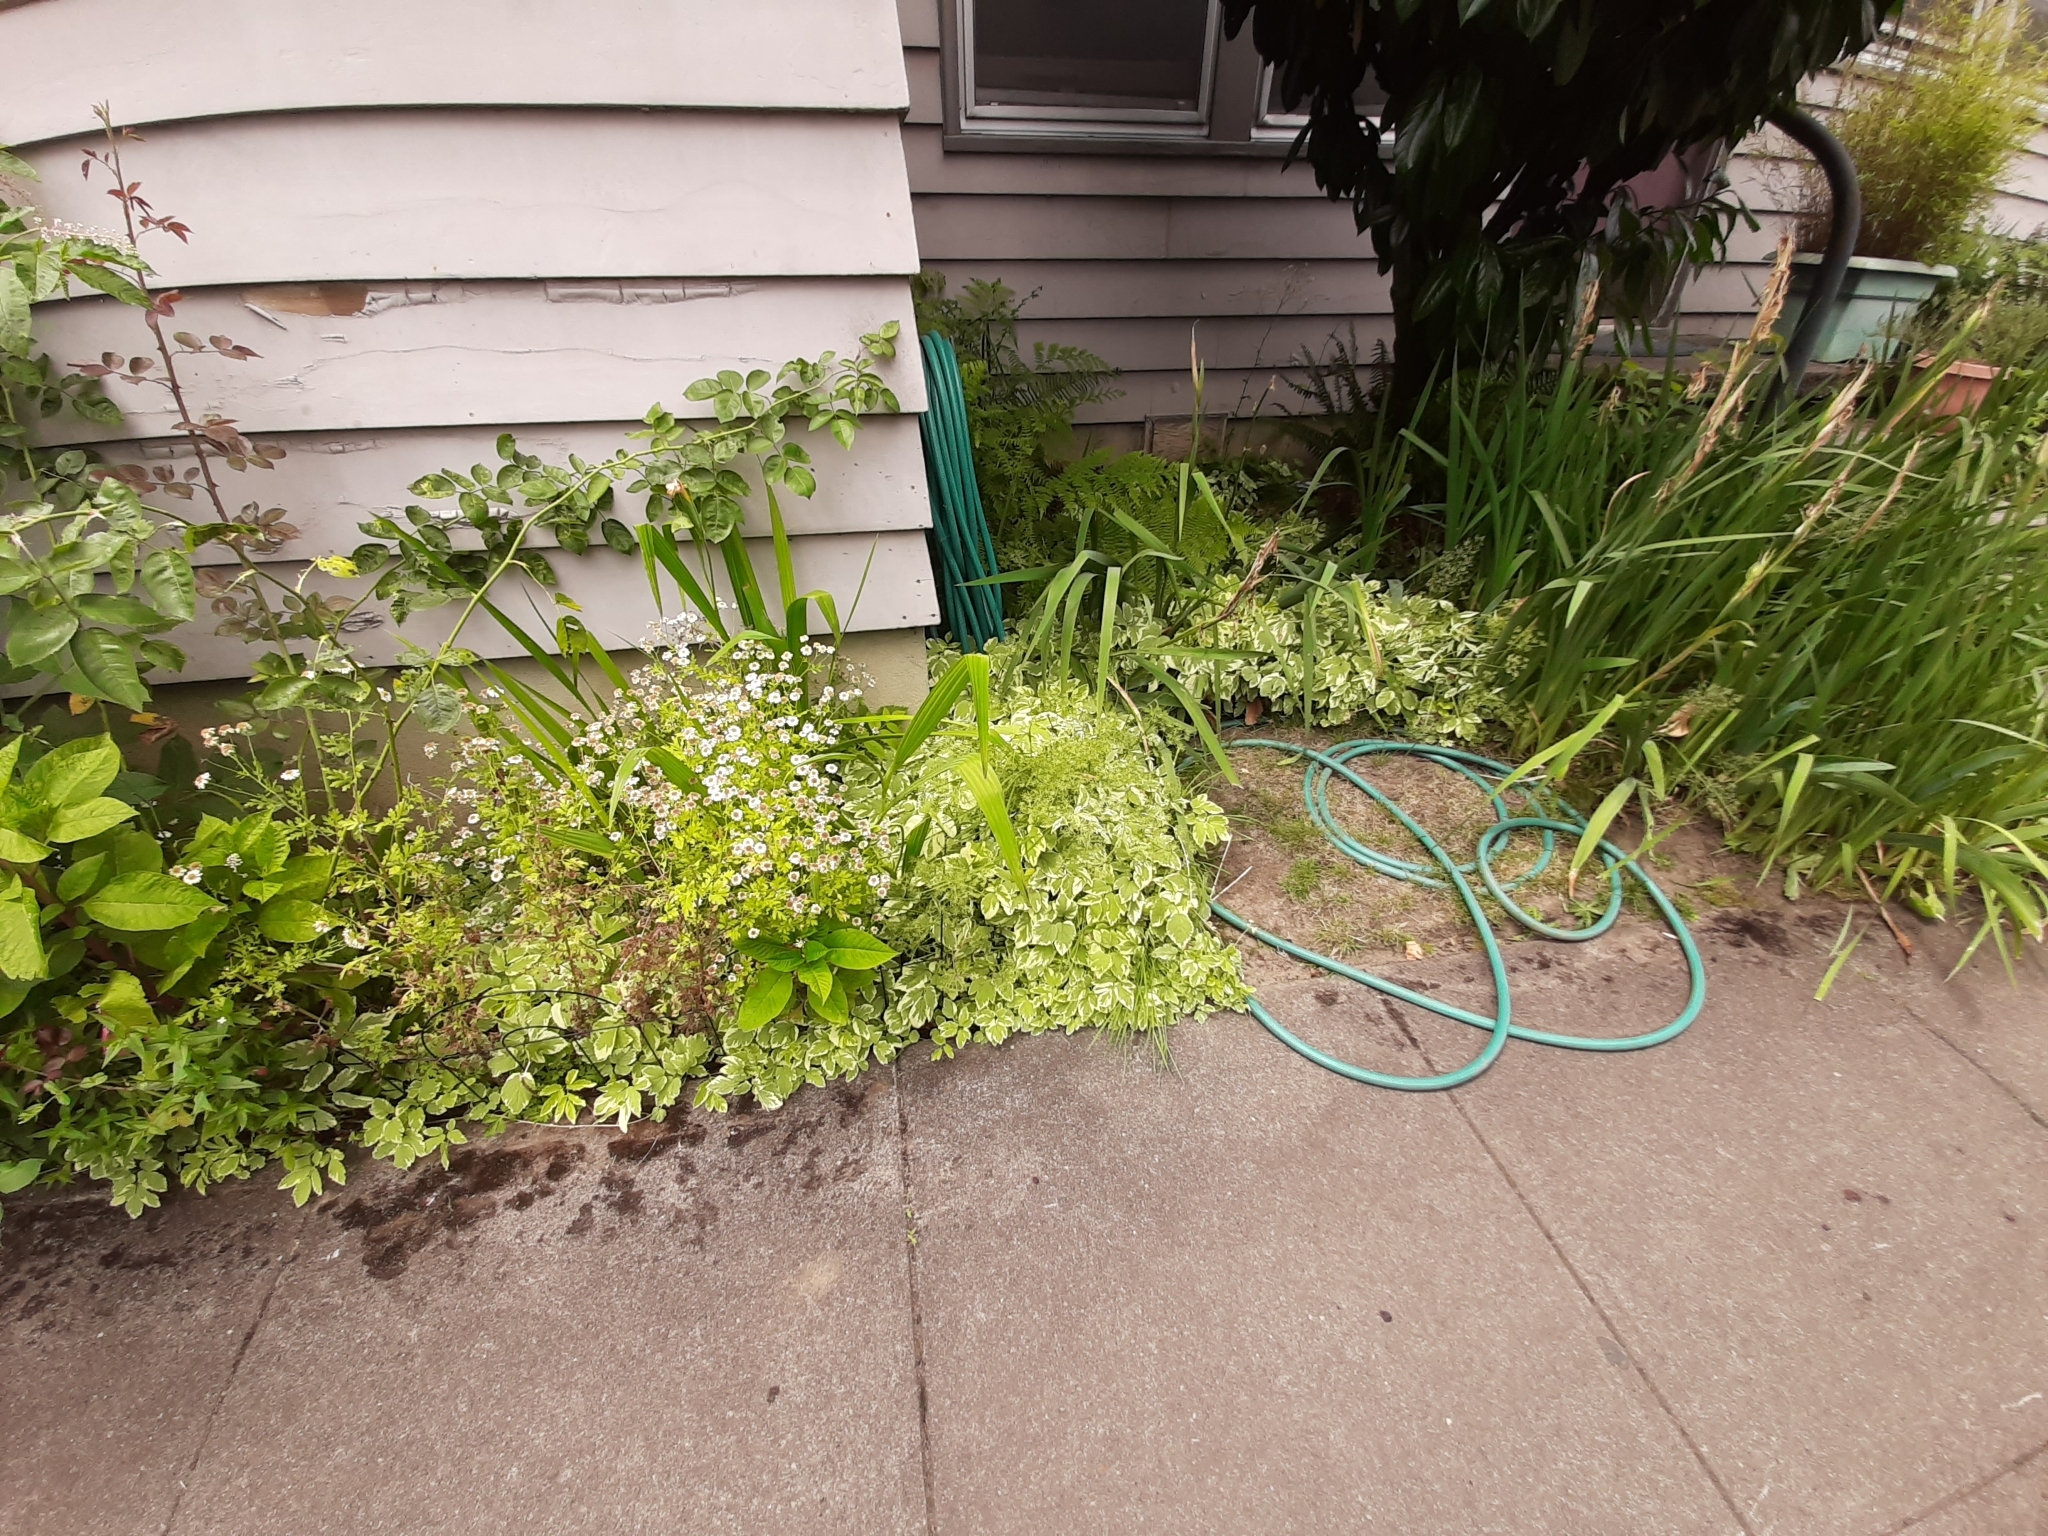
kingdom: Plantae
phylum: Tracheophyta
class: Magnoliopsida
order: Apiales
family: Apiaceae
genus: Aegopodium
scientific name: Aegopodium podagraria
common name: Ground-elder
